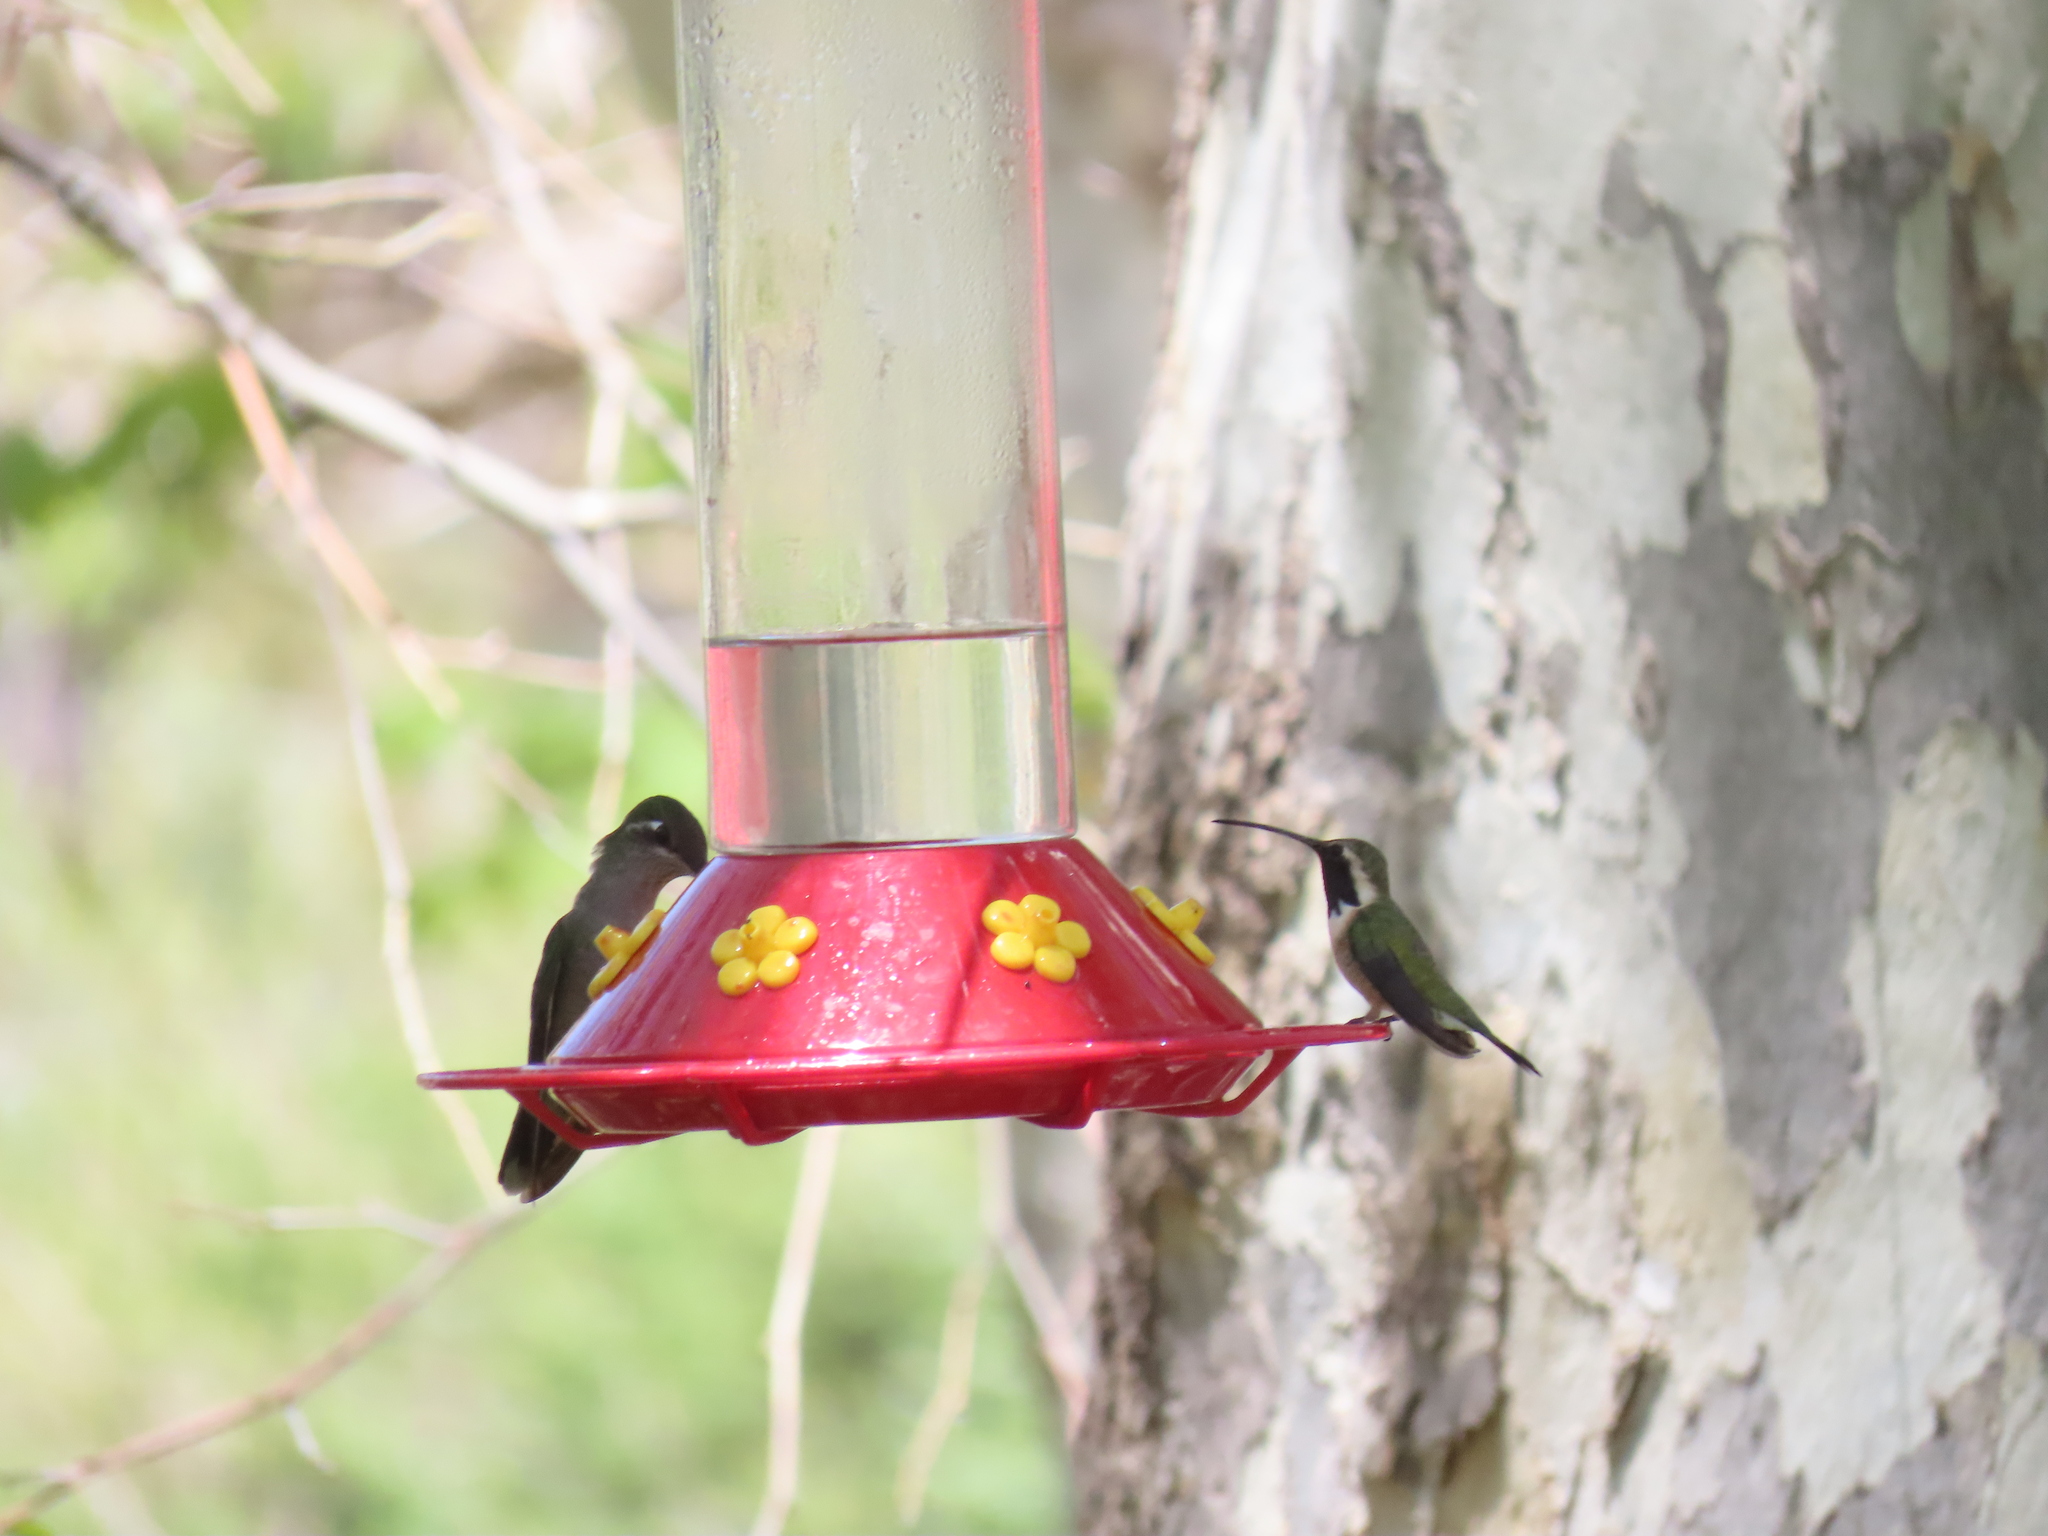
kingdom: Animalia
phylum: Chordata
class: Aves
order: Apodiformes
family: Trochilidae
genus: Eugenes
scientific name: Eugenes fulgens
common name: Magnificent hummingbird
